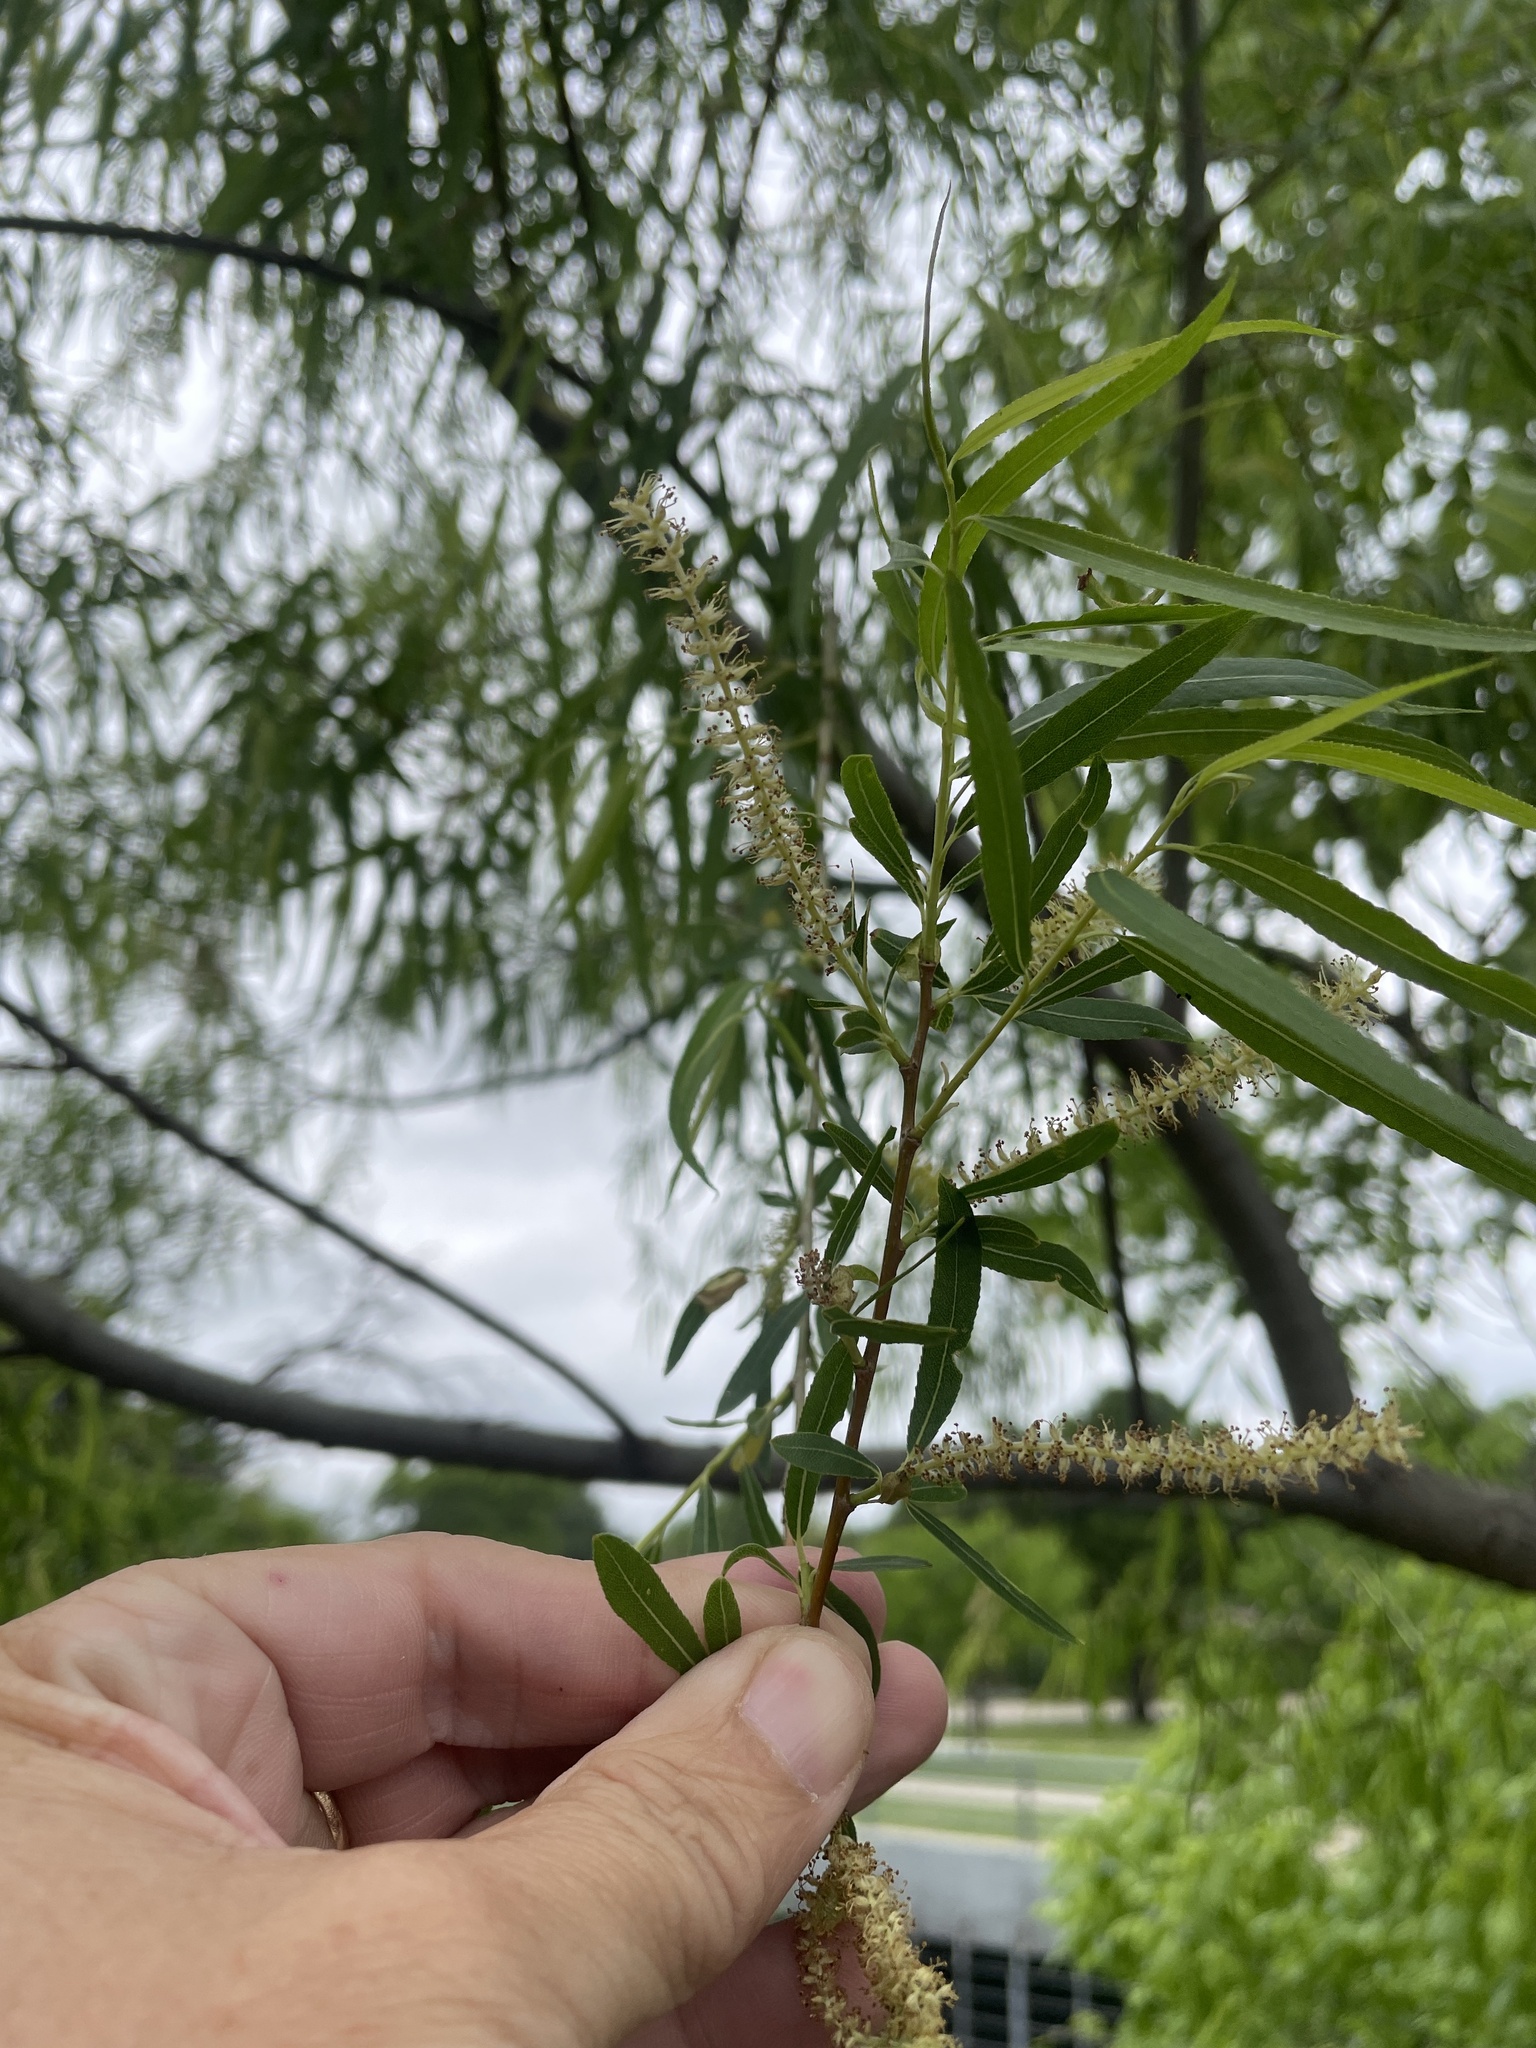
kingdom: Plantae
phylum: Tracheophyta
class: Magnoliopsida
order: Malpighiales
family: Salicaceae
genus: Salix
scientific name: Salix nigra
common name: Black willow
